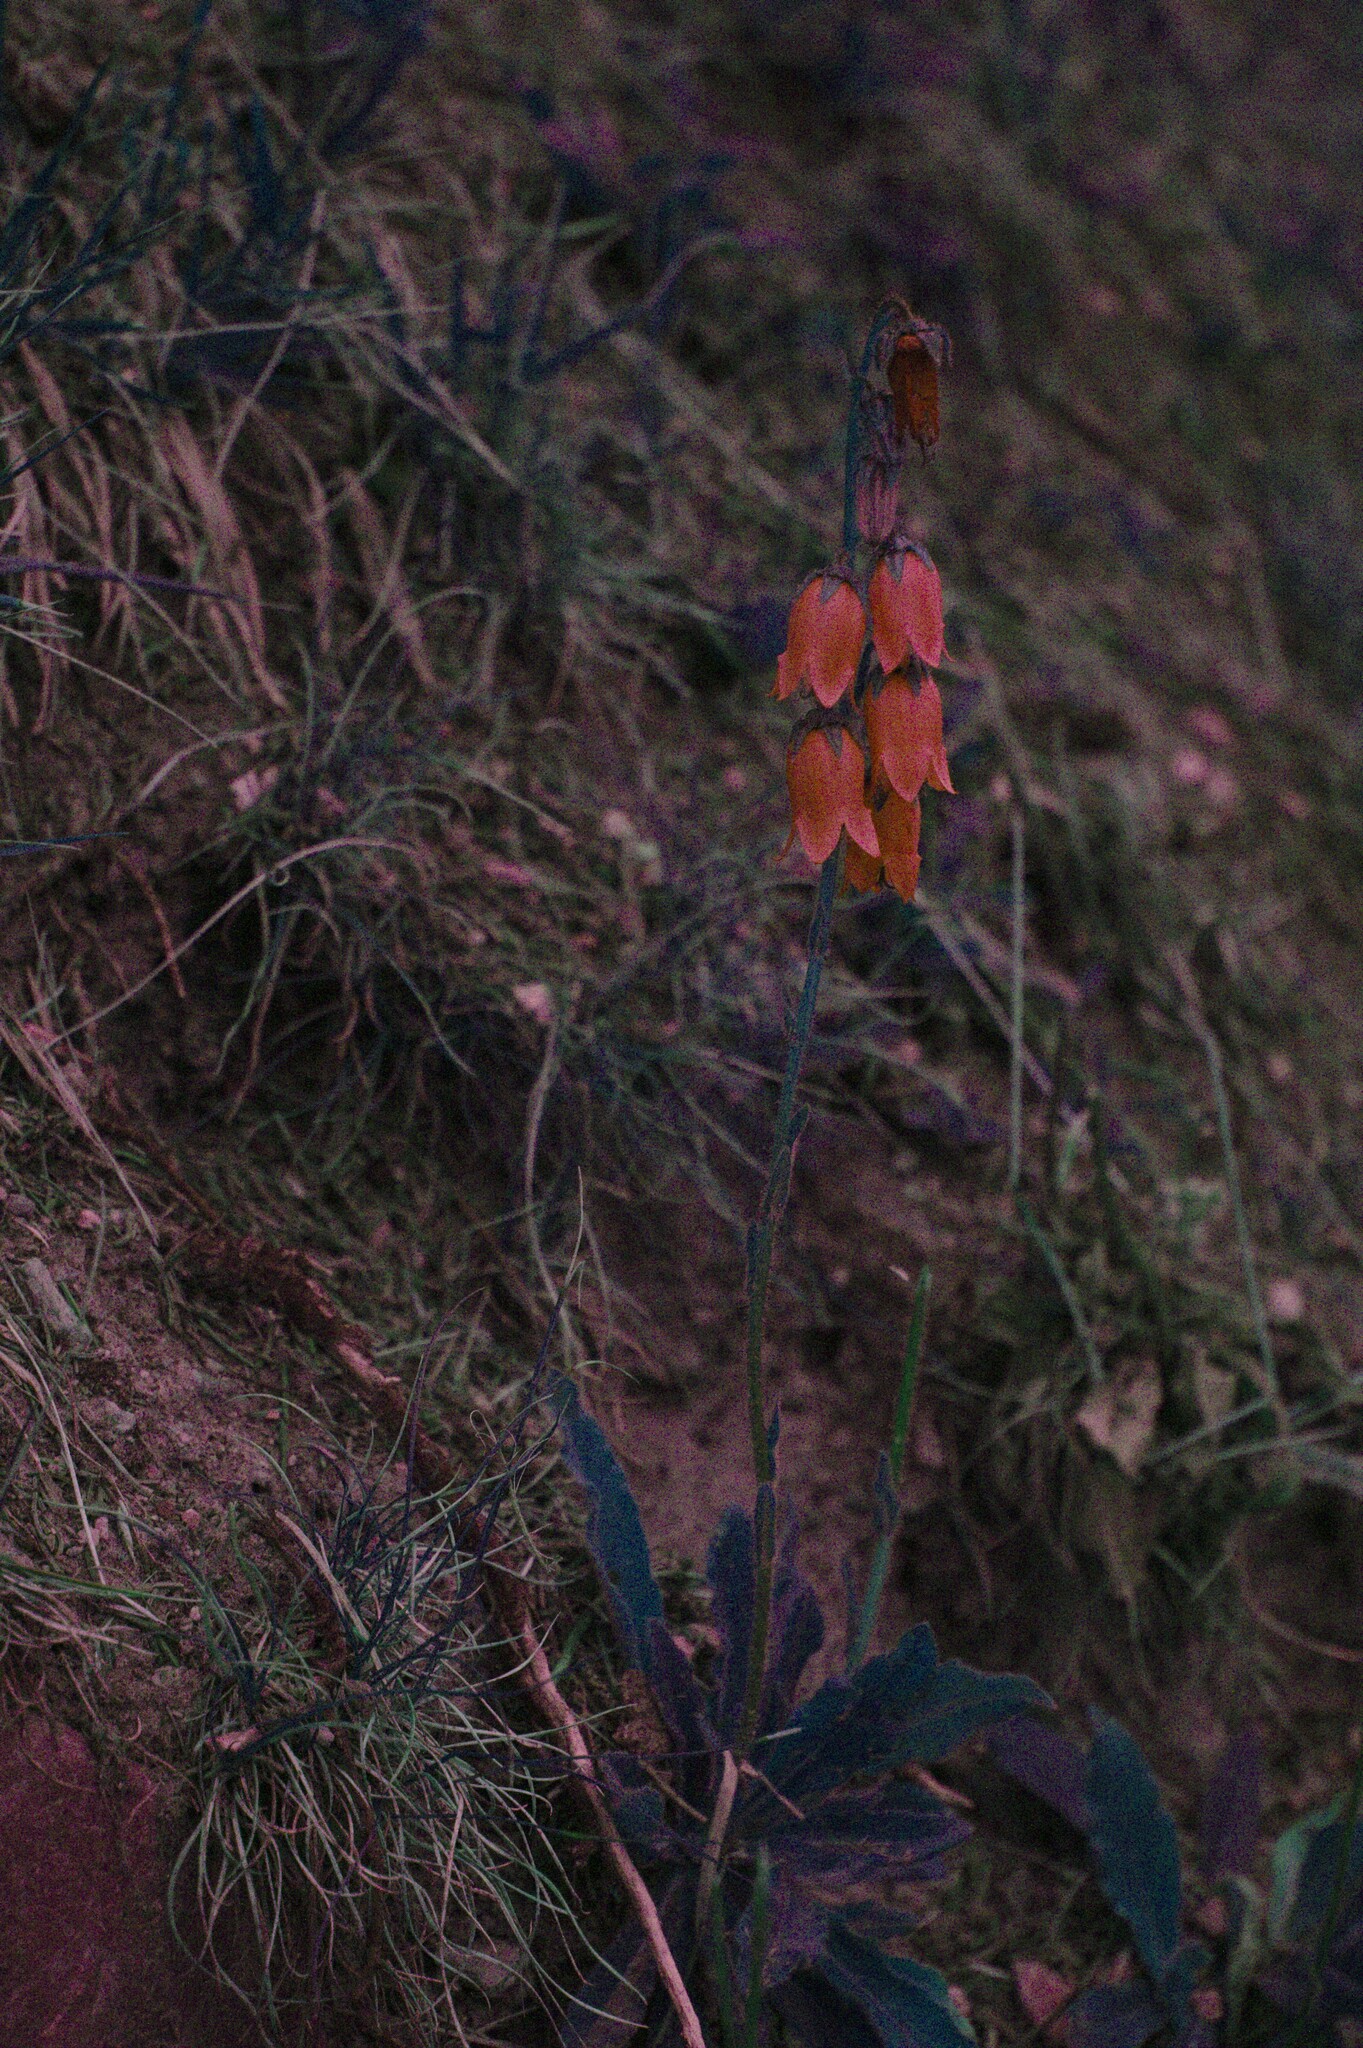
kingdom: Plantae
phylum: Tracheophyta
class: Magnoliopsida
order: Asterales
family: Campanulaceae
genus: Campanula
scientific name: Campanula barbata
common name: Bearded bellflower
